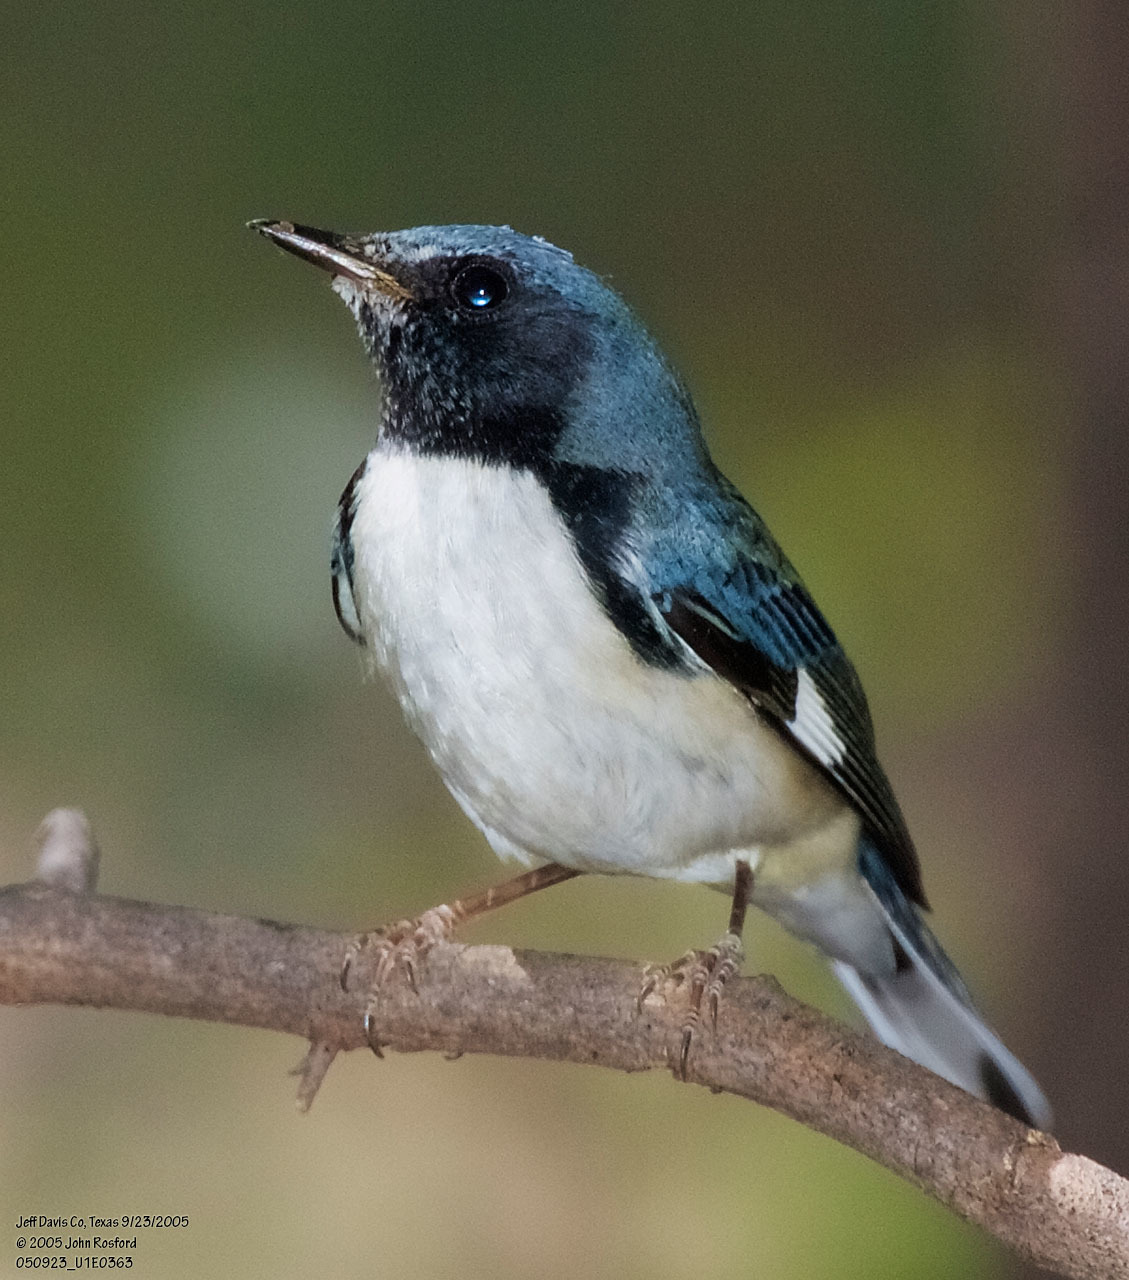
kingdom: Animalia
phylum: Chordata
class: Aves
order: Passeriformes
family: Parulidae
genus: Setophaga
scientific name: Setophaga caerulescens
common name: Black-throated blue warbler
